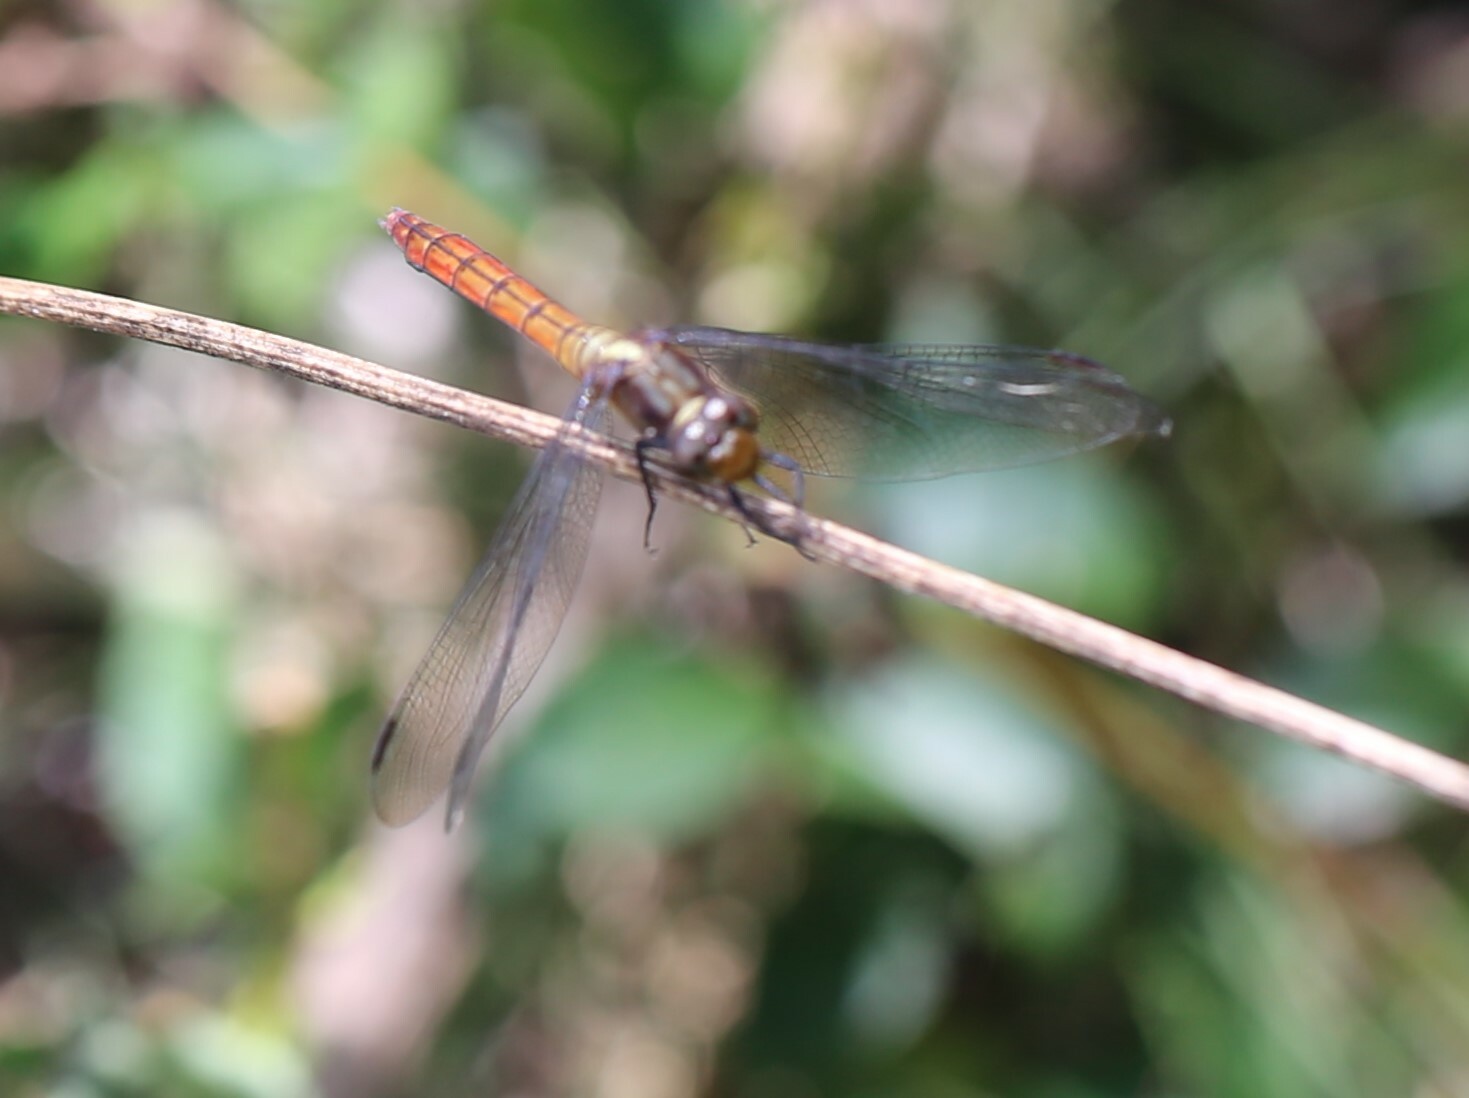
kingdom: Animalia
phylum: Arthropoda
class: Insecta
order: Odonata
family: Libellulidae
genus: Orthetrum
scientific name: Orthetrum villosovittatum
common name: Firery skimmer
